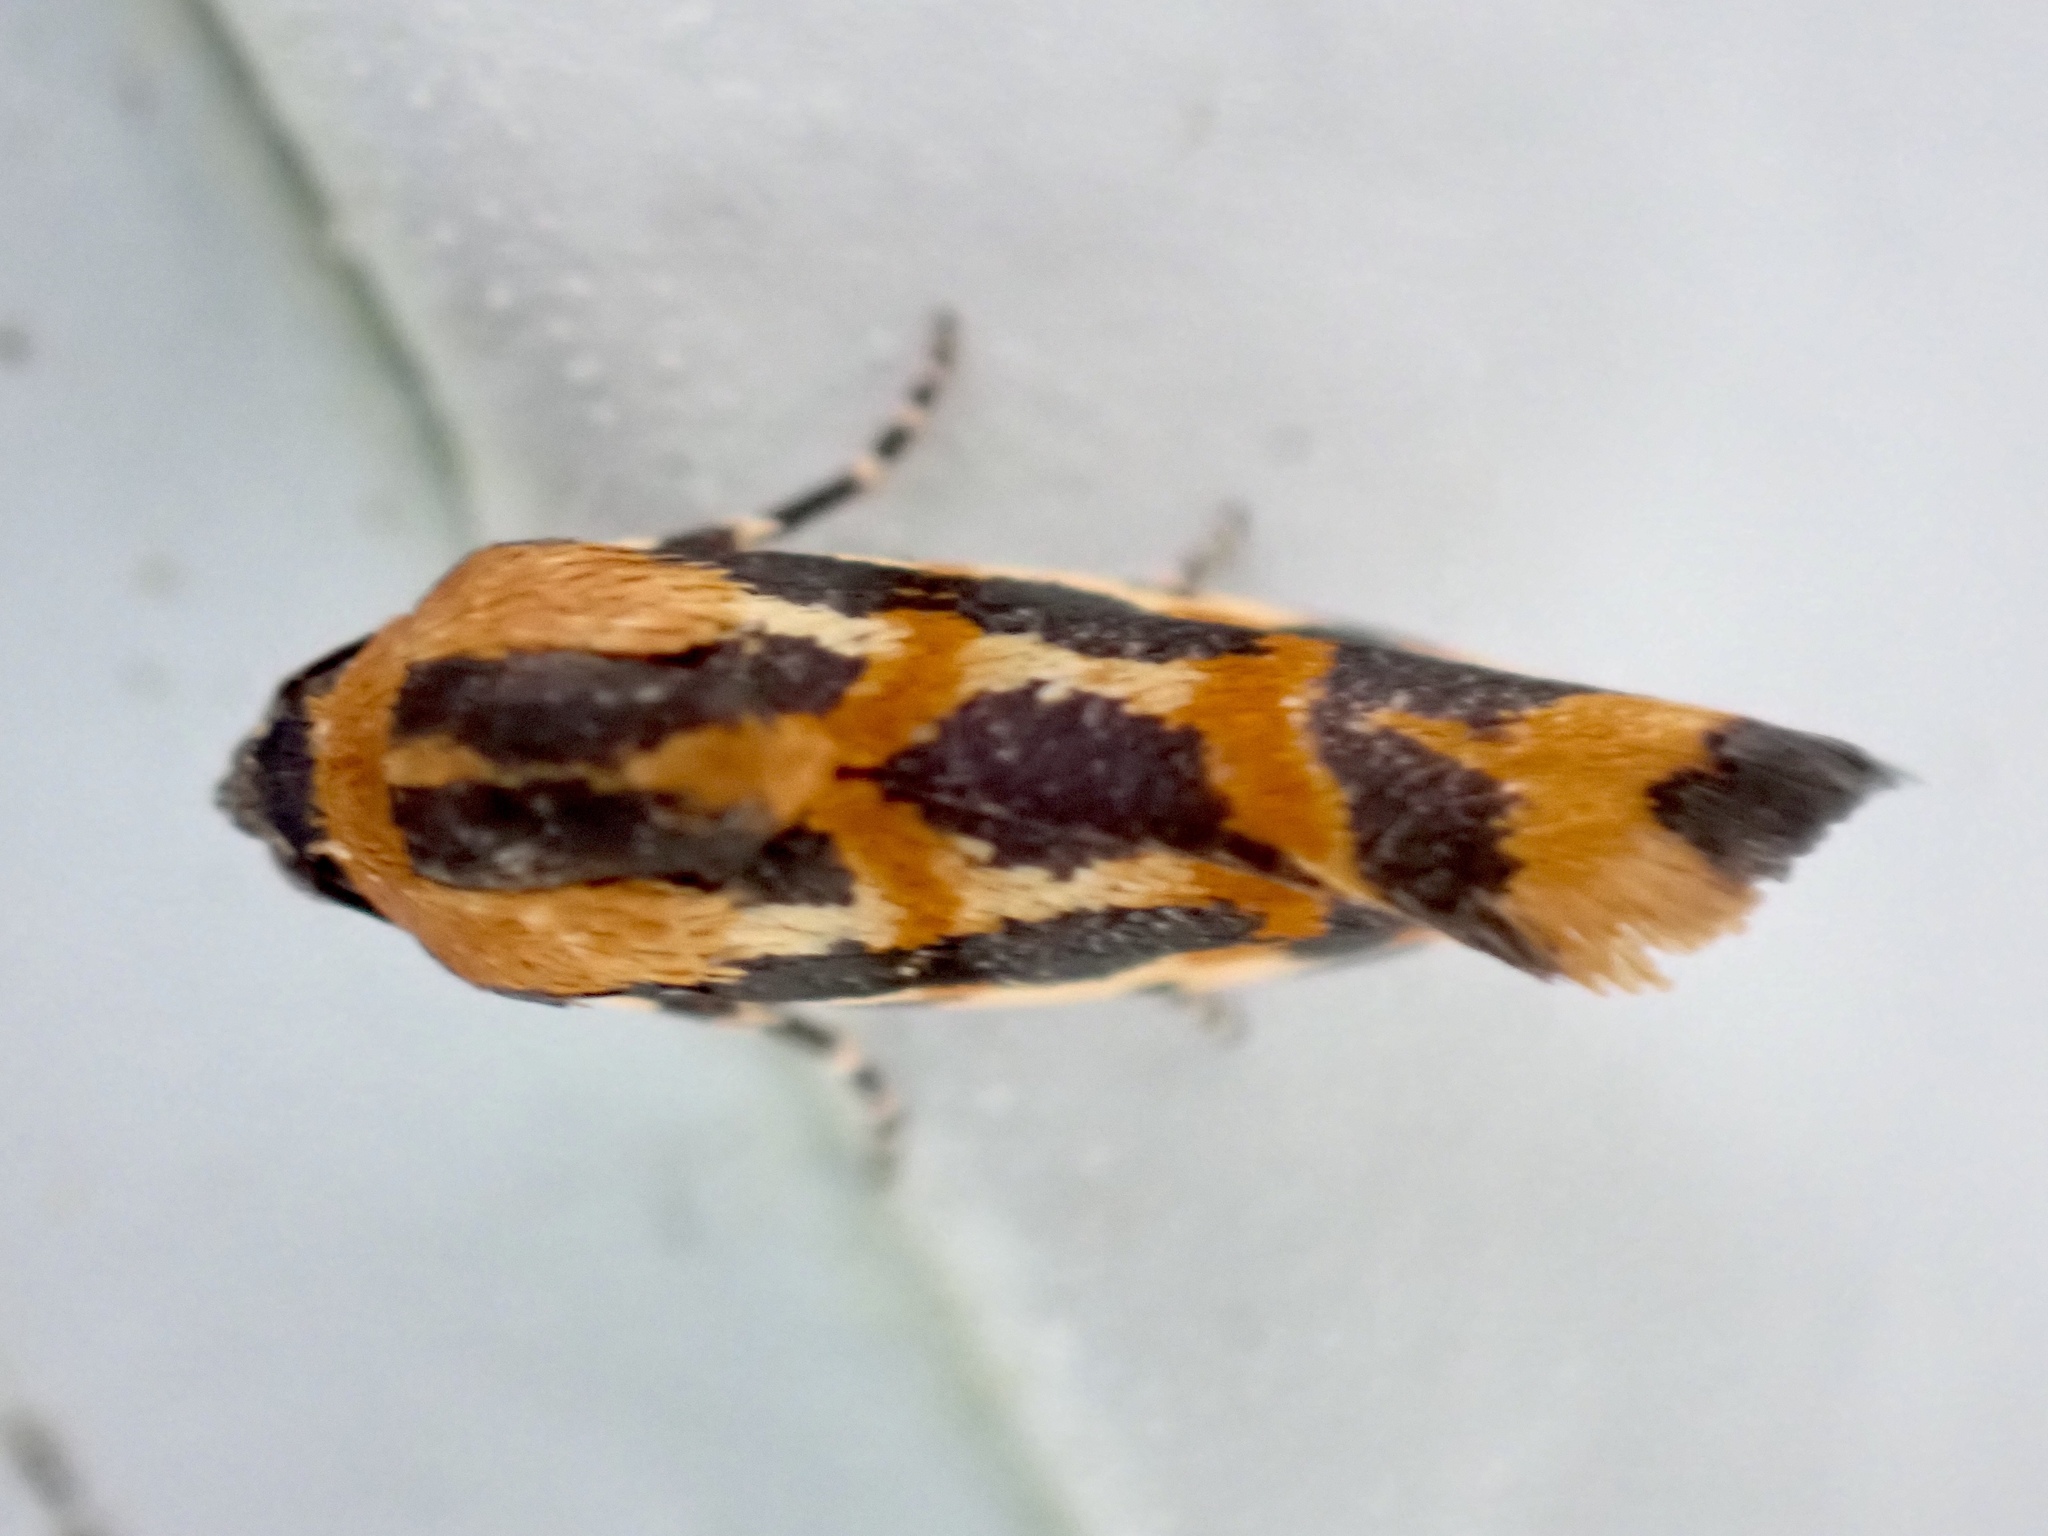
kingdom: Animalia
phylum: Arthropoda
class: Insecta
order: Lepidoptera
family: Noctuidae
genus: Acontia
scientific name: Acontia leo
